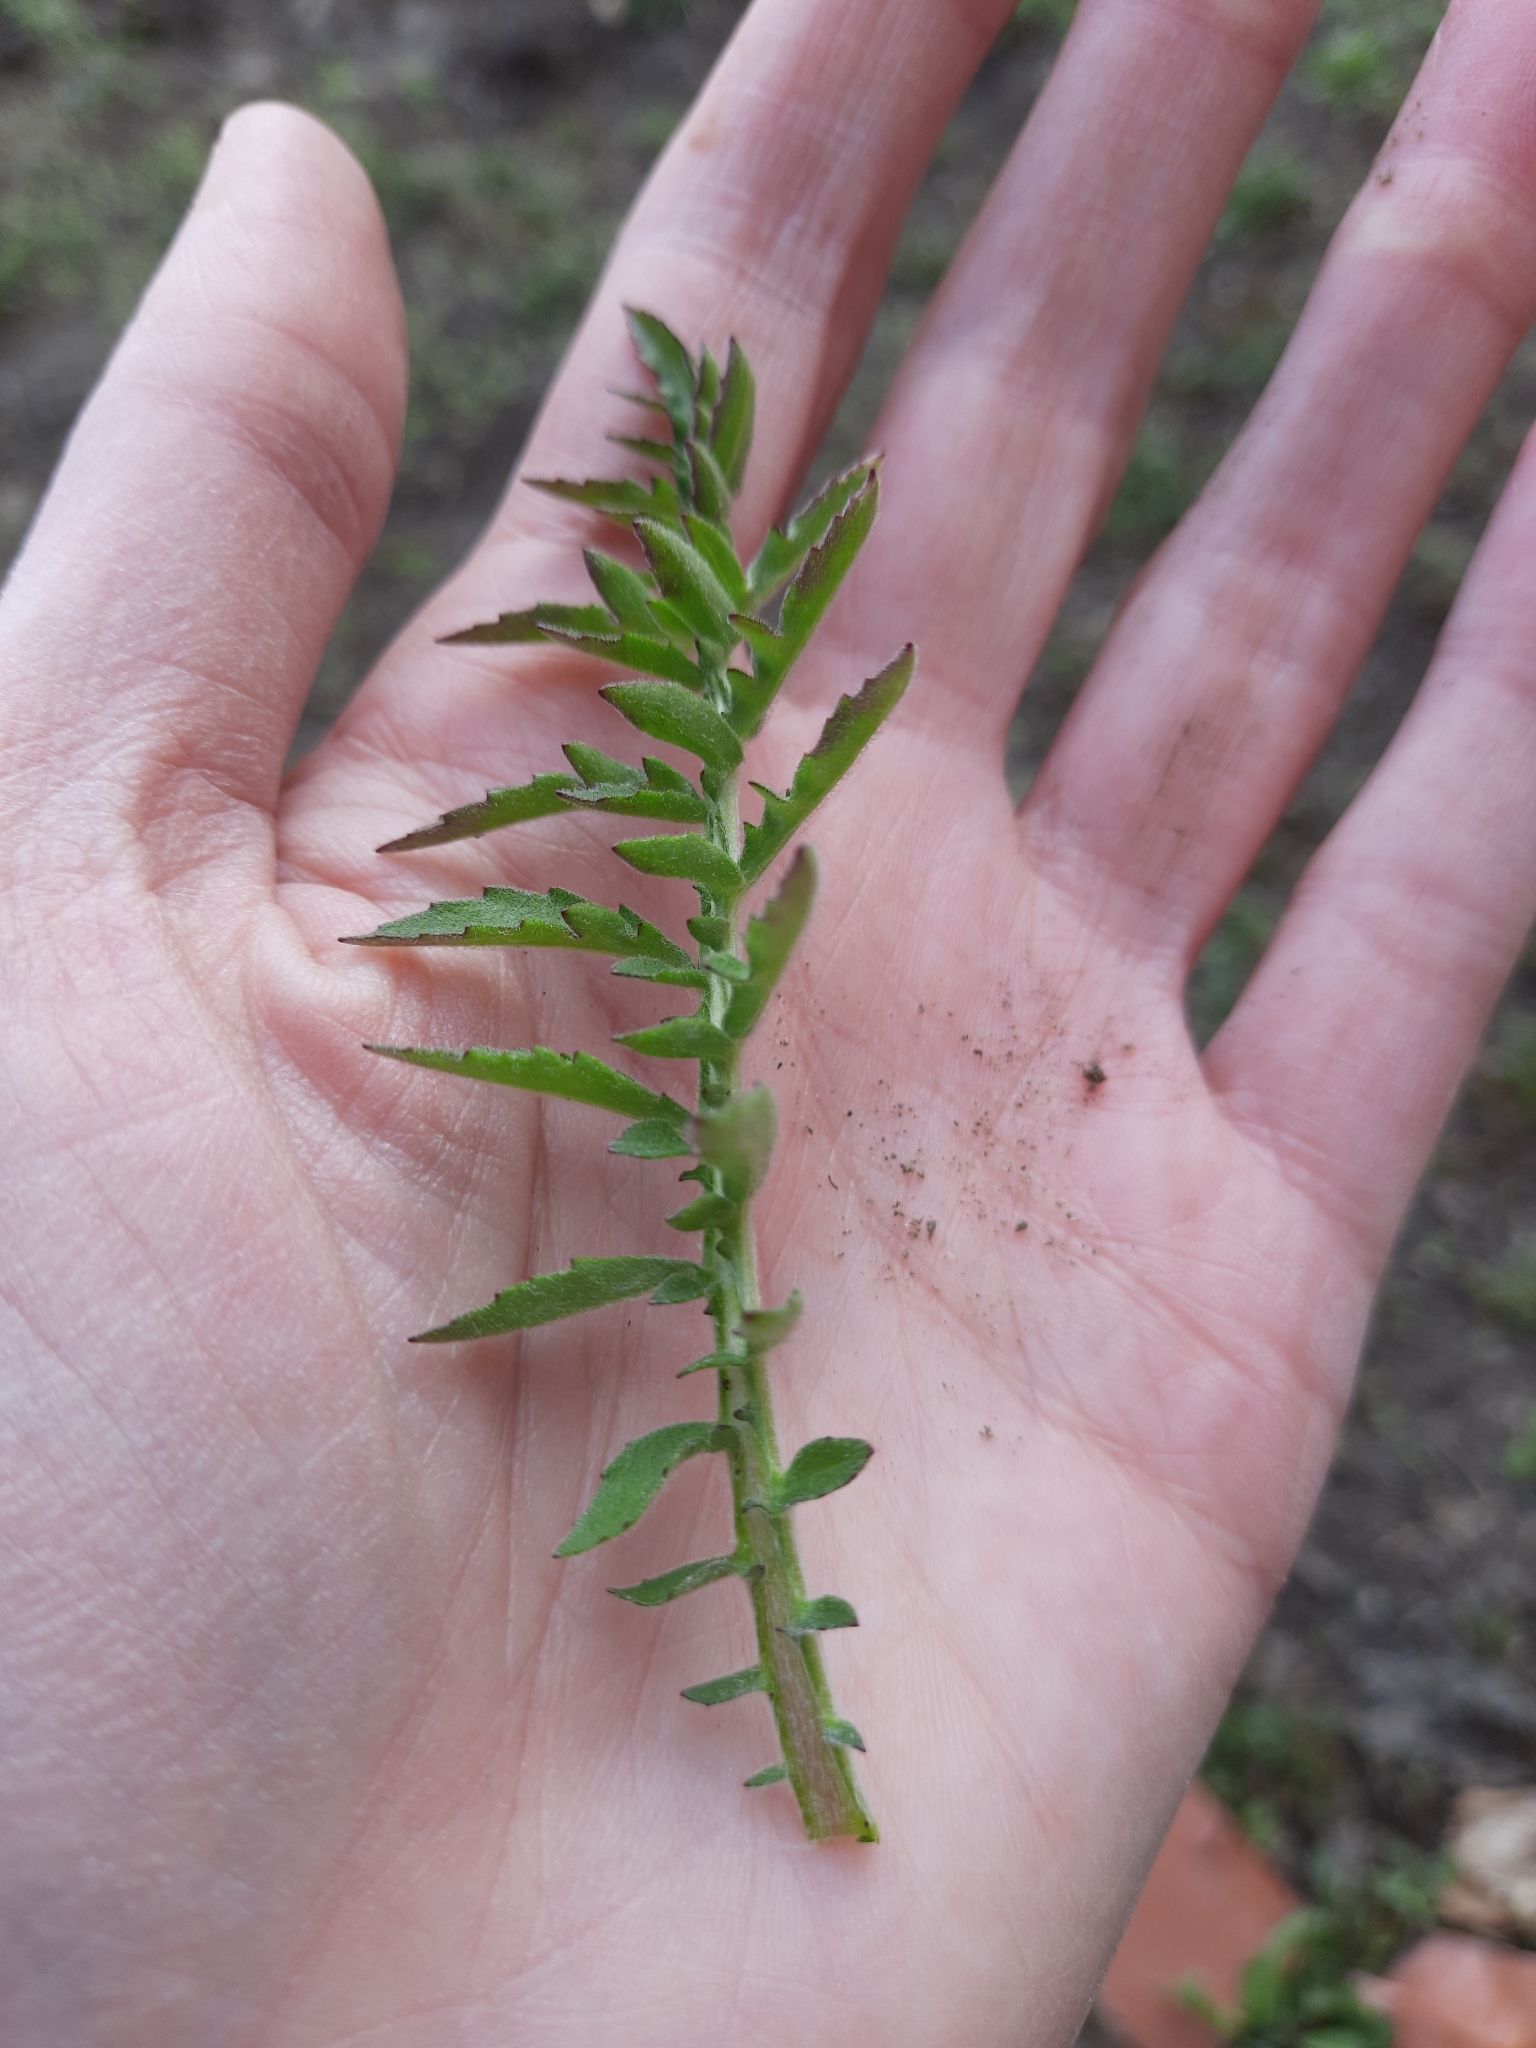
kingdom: Plantae
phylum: Tracheophyta
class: Magnoliopsida
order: Asterales
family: Asteraceae
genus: Centaurea
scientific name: Centaurea scabiosa
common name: Greater knapweed
